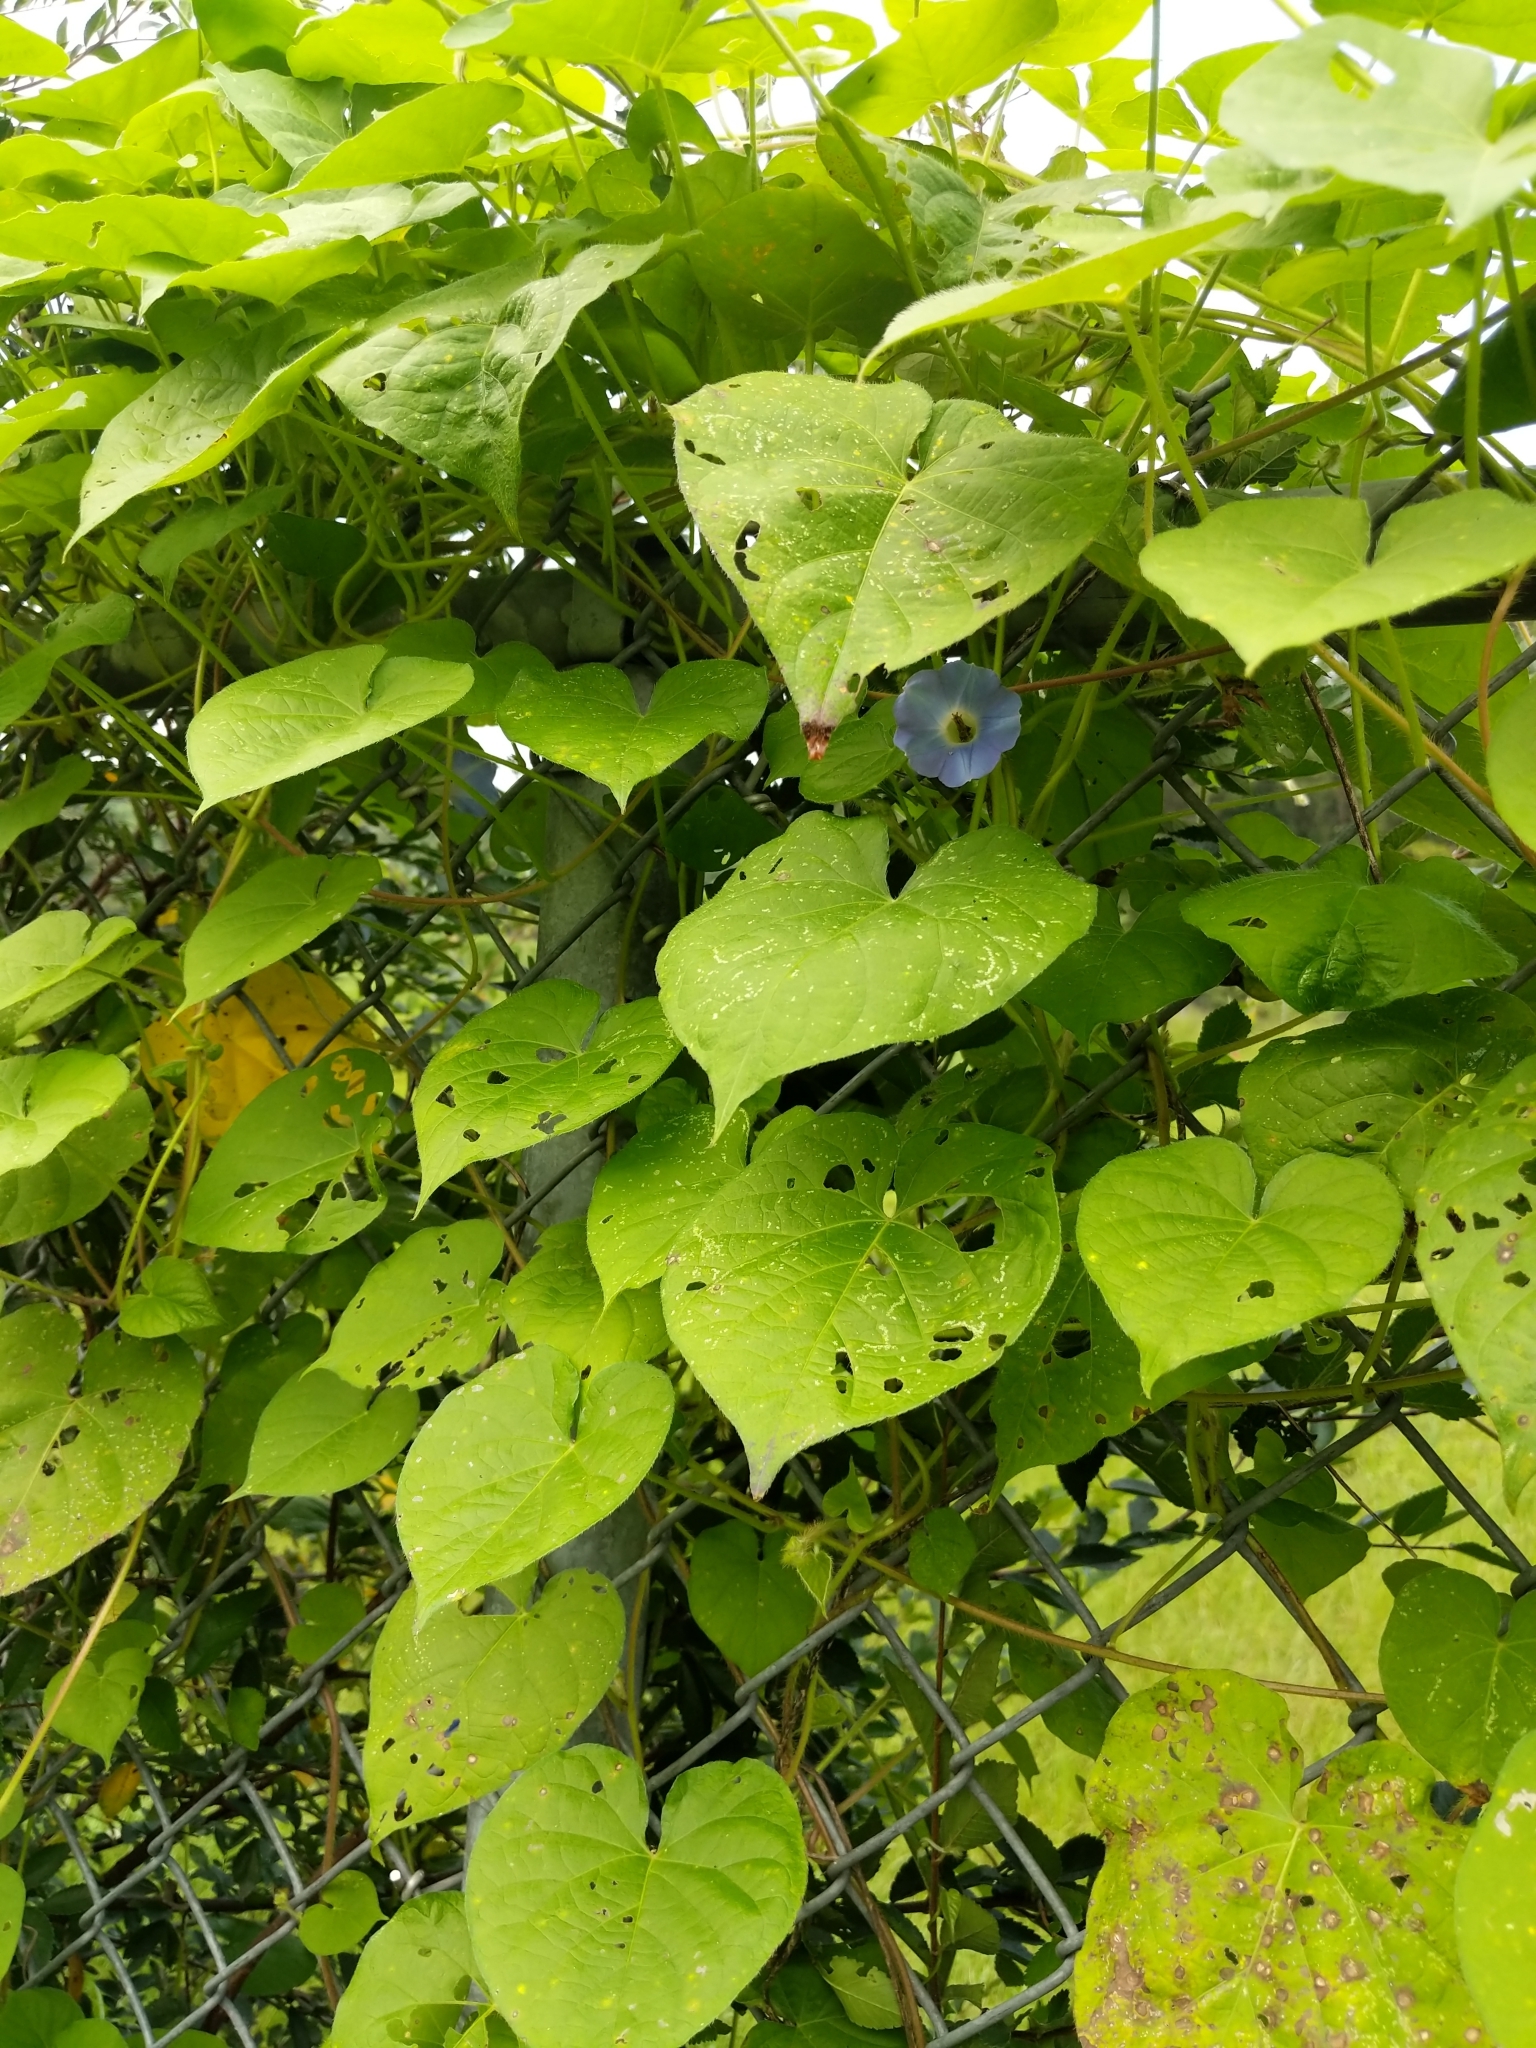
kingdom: Plantae
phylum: Tracheophyta
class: Magnoliopsida
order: Solanales
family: Convolvulaceae
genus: Ipomoea
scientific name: Ipomoea hederacea
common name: Ivy-leaved morning-glory
